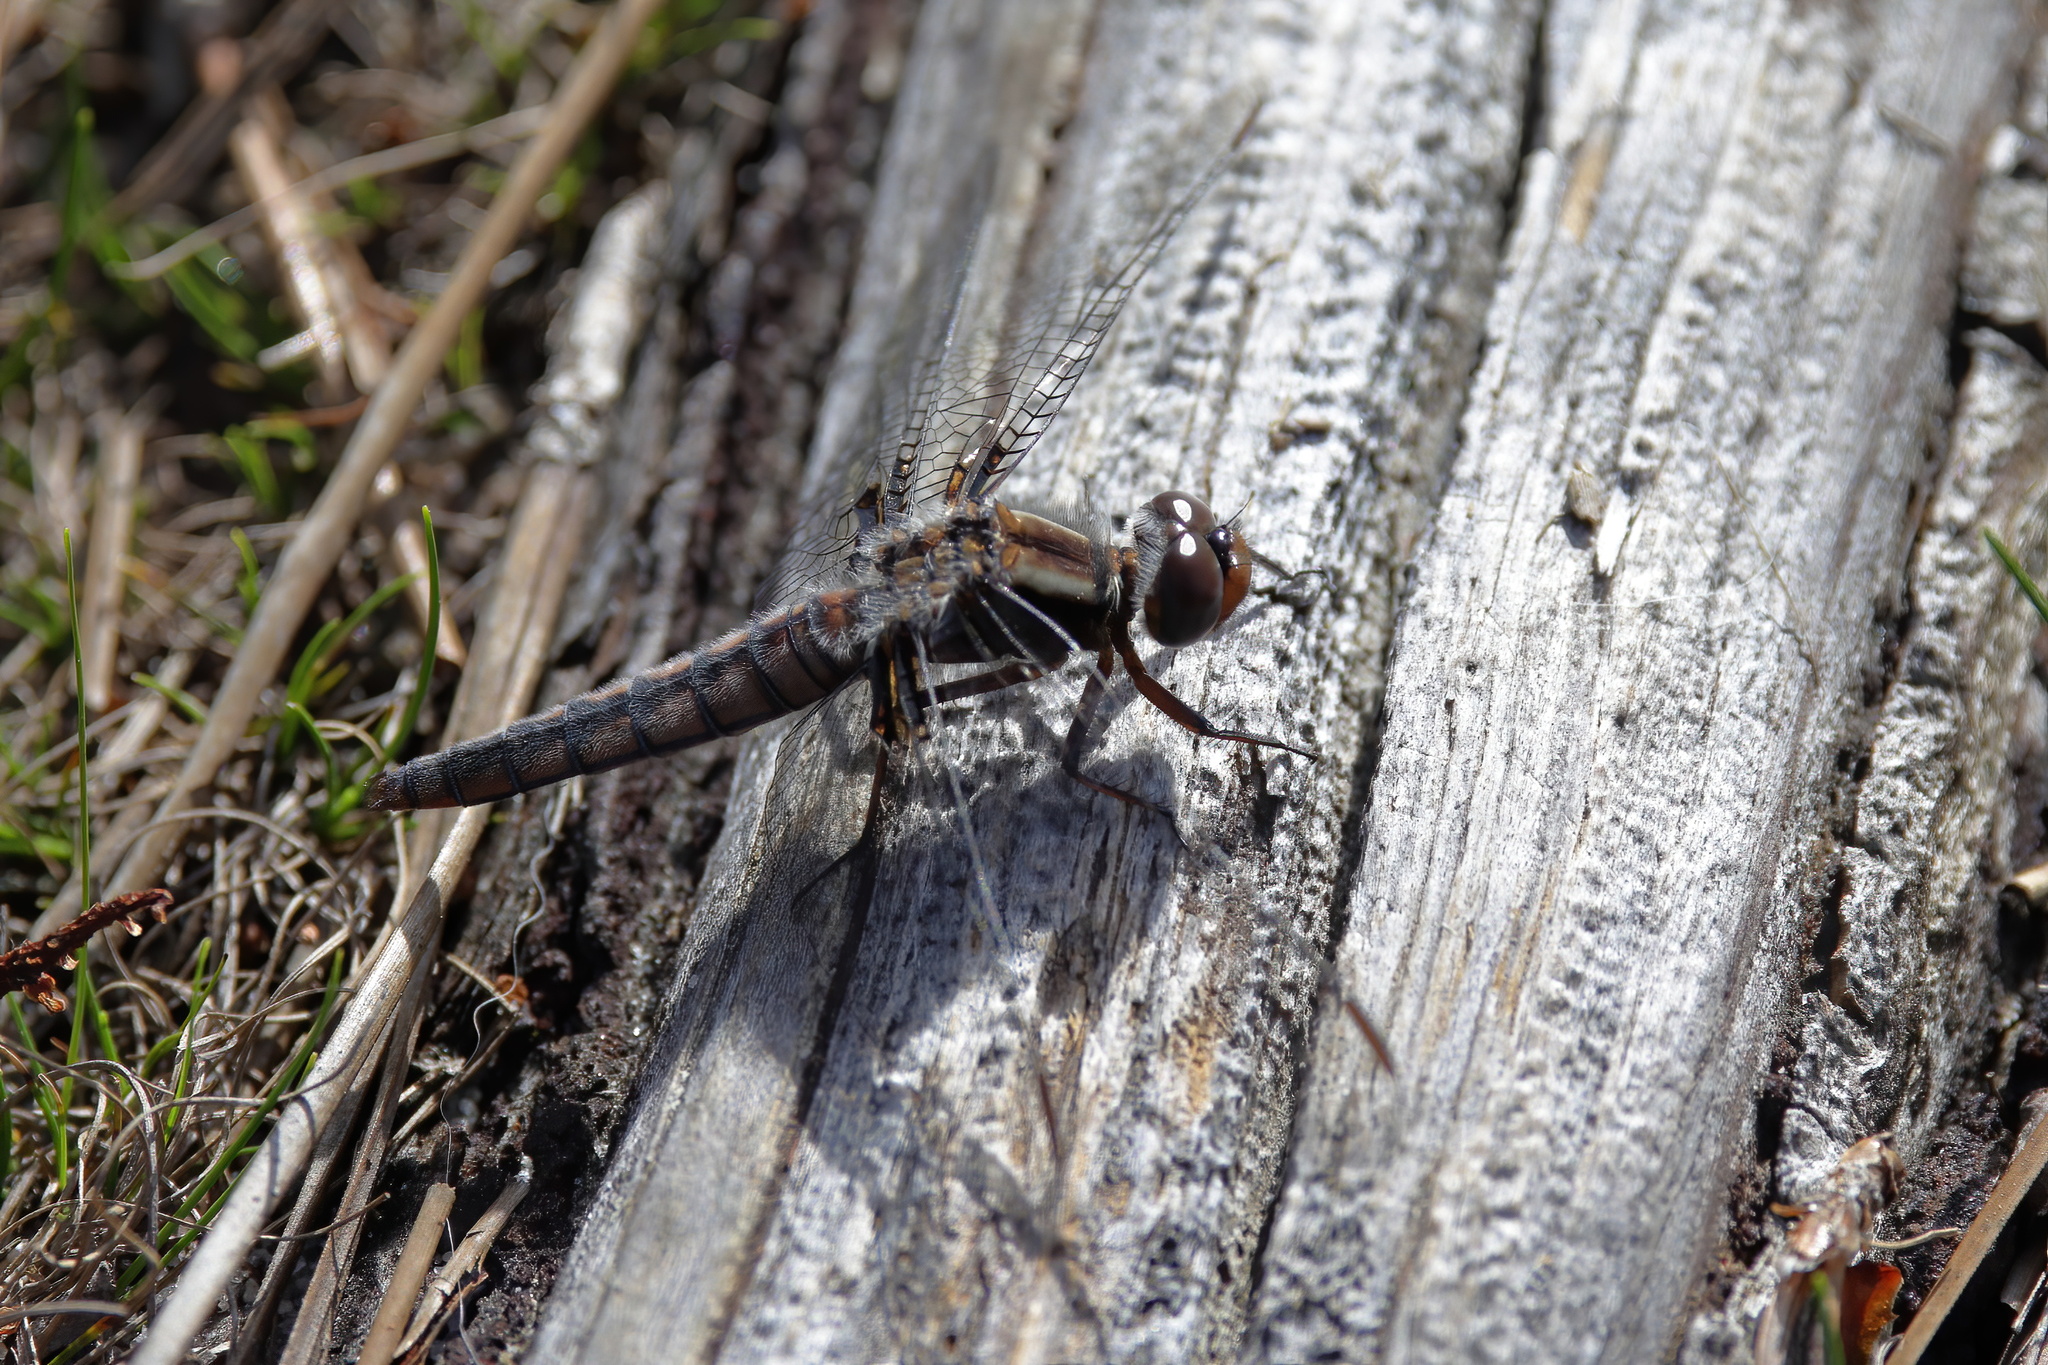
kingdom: Animalia
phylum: Arthropoda
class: Insecta
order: Odonata
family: Libellulidae
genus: Ladona
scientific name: Ladona deplanata
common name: Blue corporal
